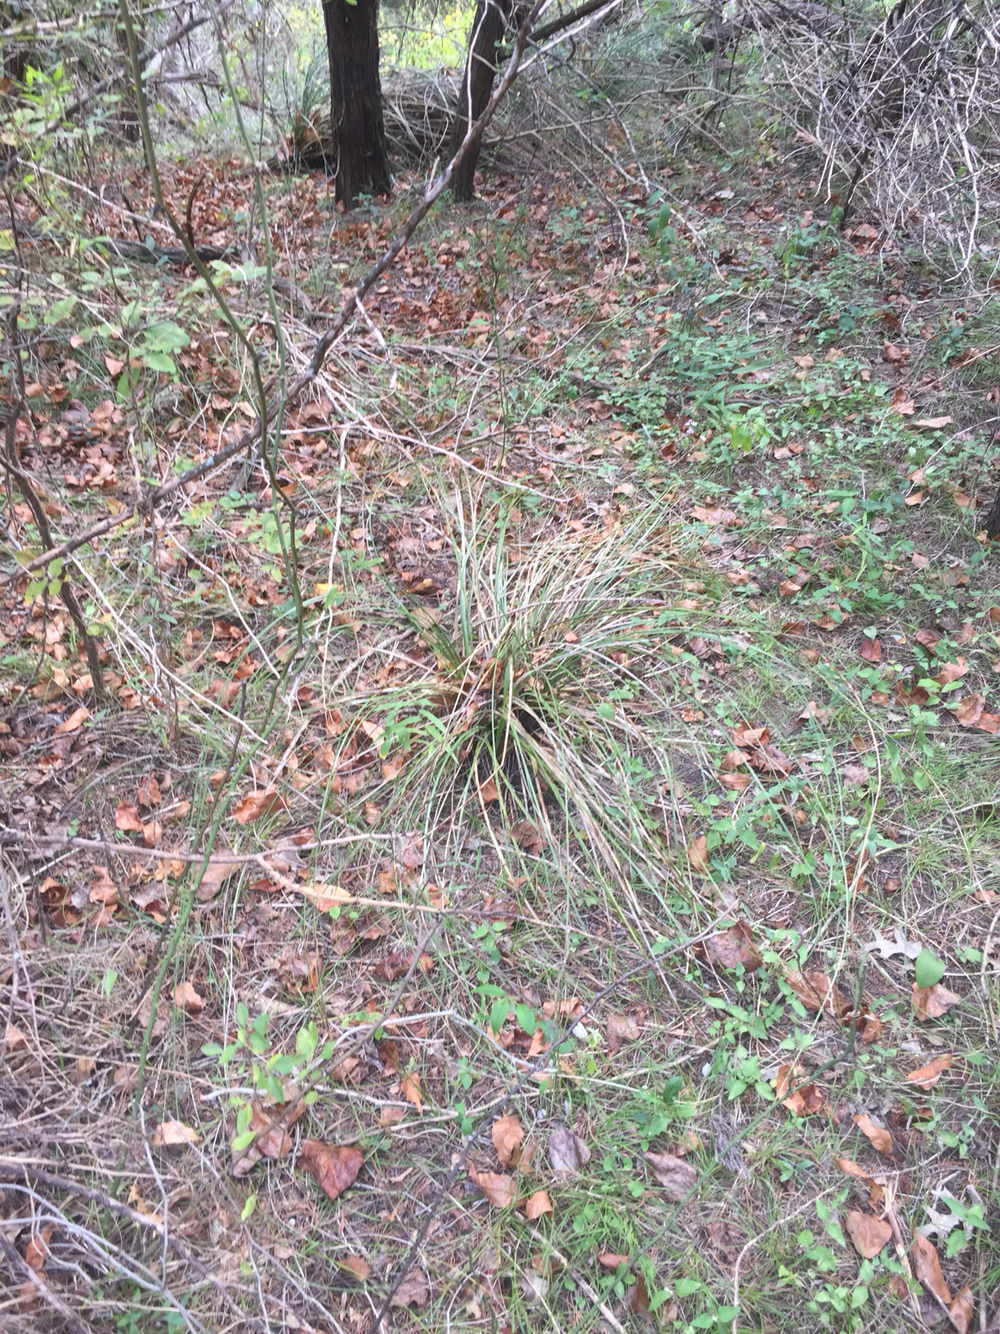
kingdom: Plantae
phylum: Tracheophyta
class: Liliopsida
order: Asparagales
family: Asparagaceae
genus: Nolina
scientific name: Nolina texana
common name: Texas sacahuiste
